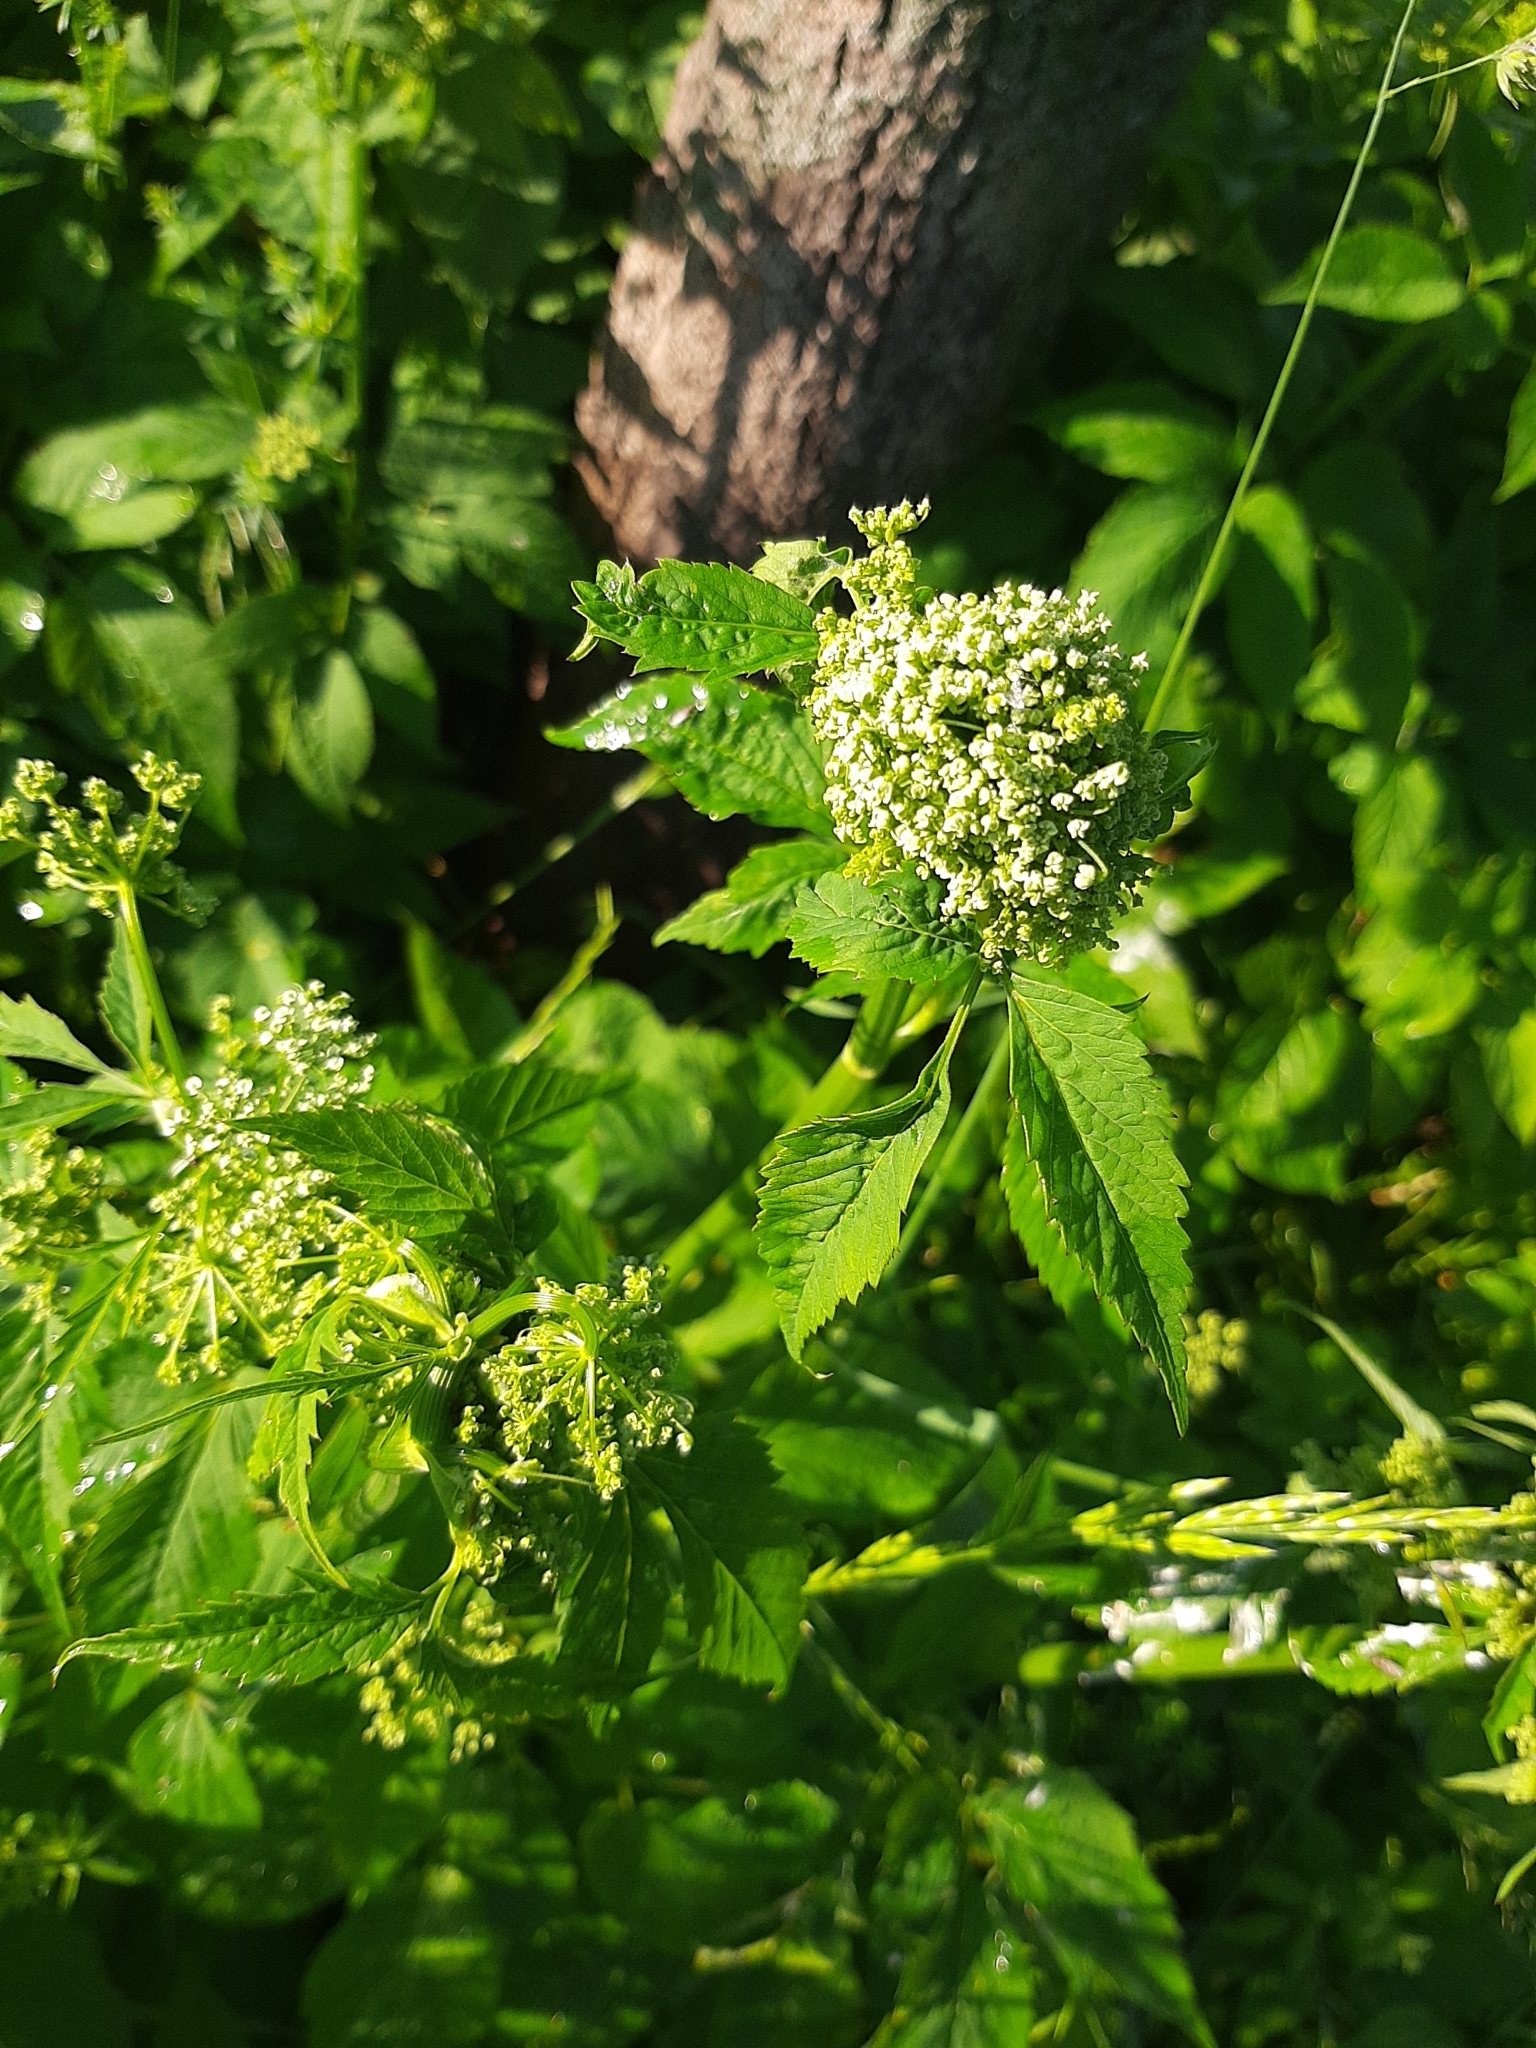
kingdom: Plantae
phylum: Tracheophyta
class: Magnoliopsida
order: Apiales
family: Apiaceae
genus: Aegopodium
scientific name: Aegopodium podagraria
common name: Ground-elder
